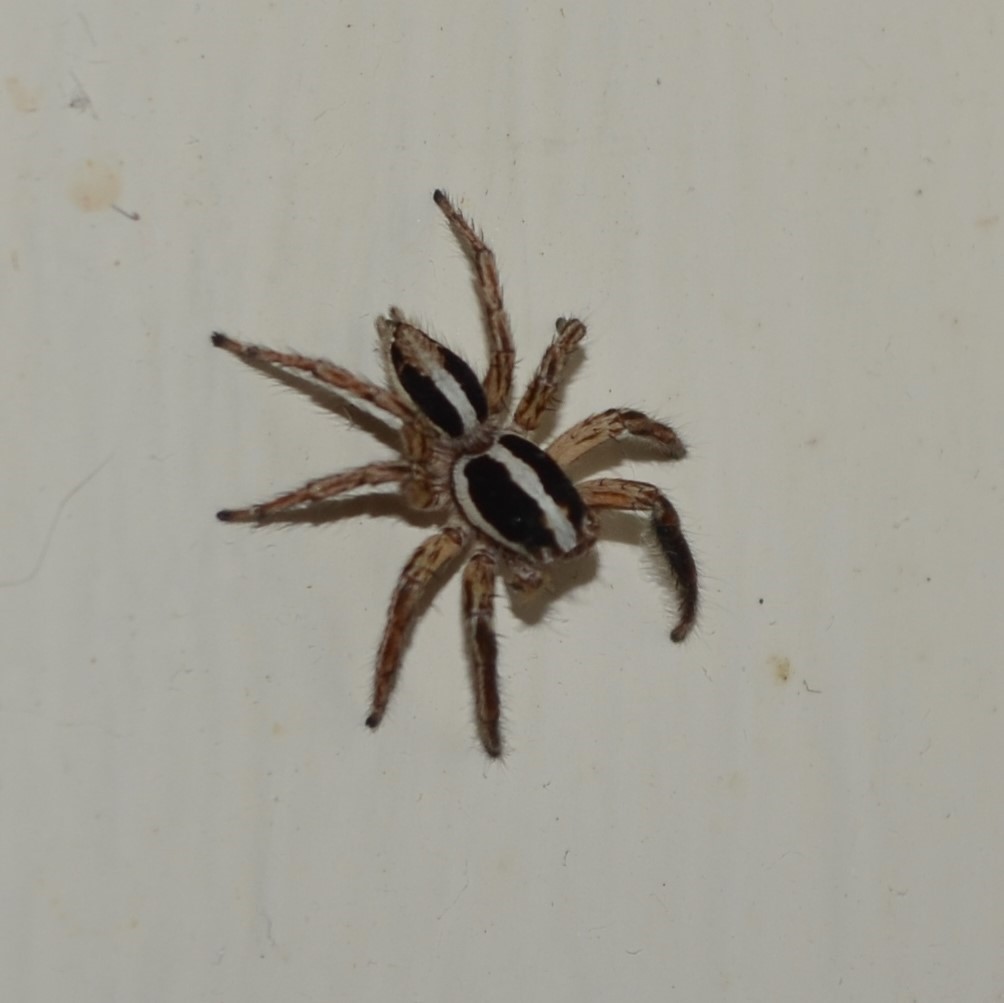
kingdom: Animalia
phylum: Arthropoda
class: Arachnida
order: Araneae
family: Salticidae
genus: Plexippus
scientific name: Plexippus paykulli
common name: Pantropical jumper
